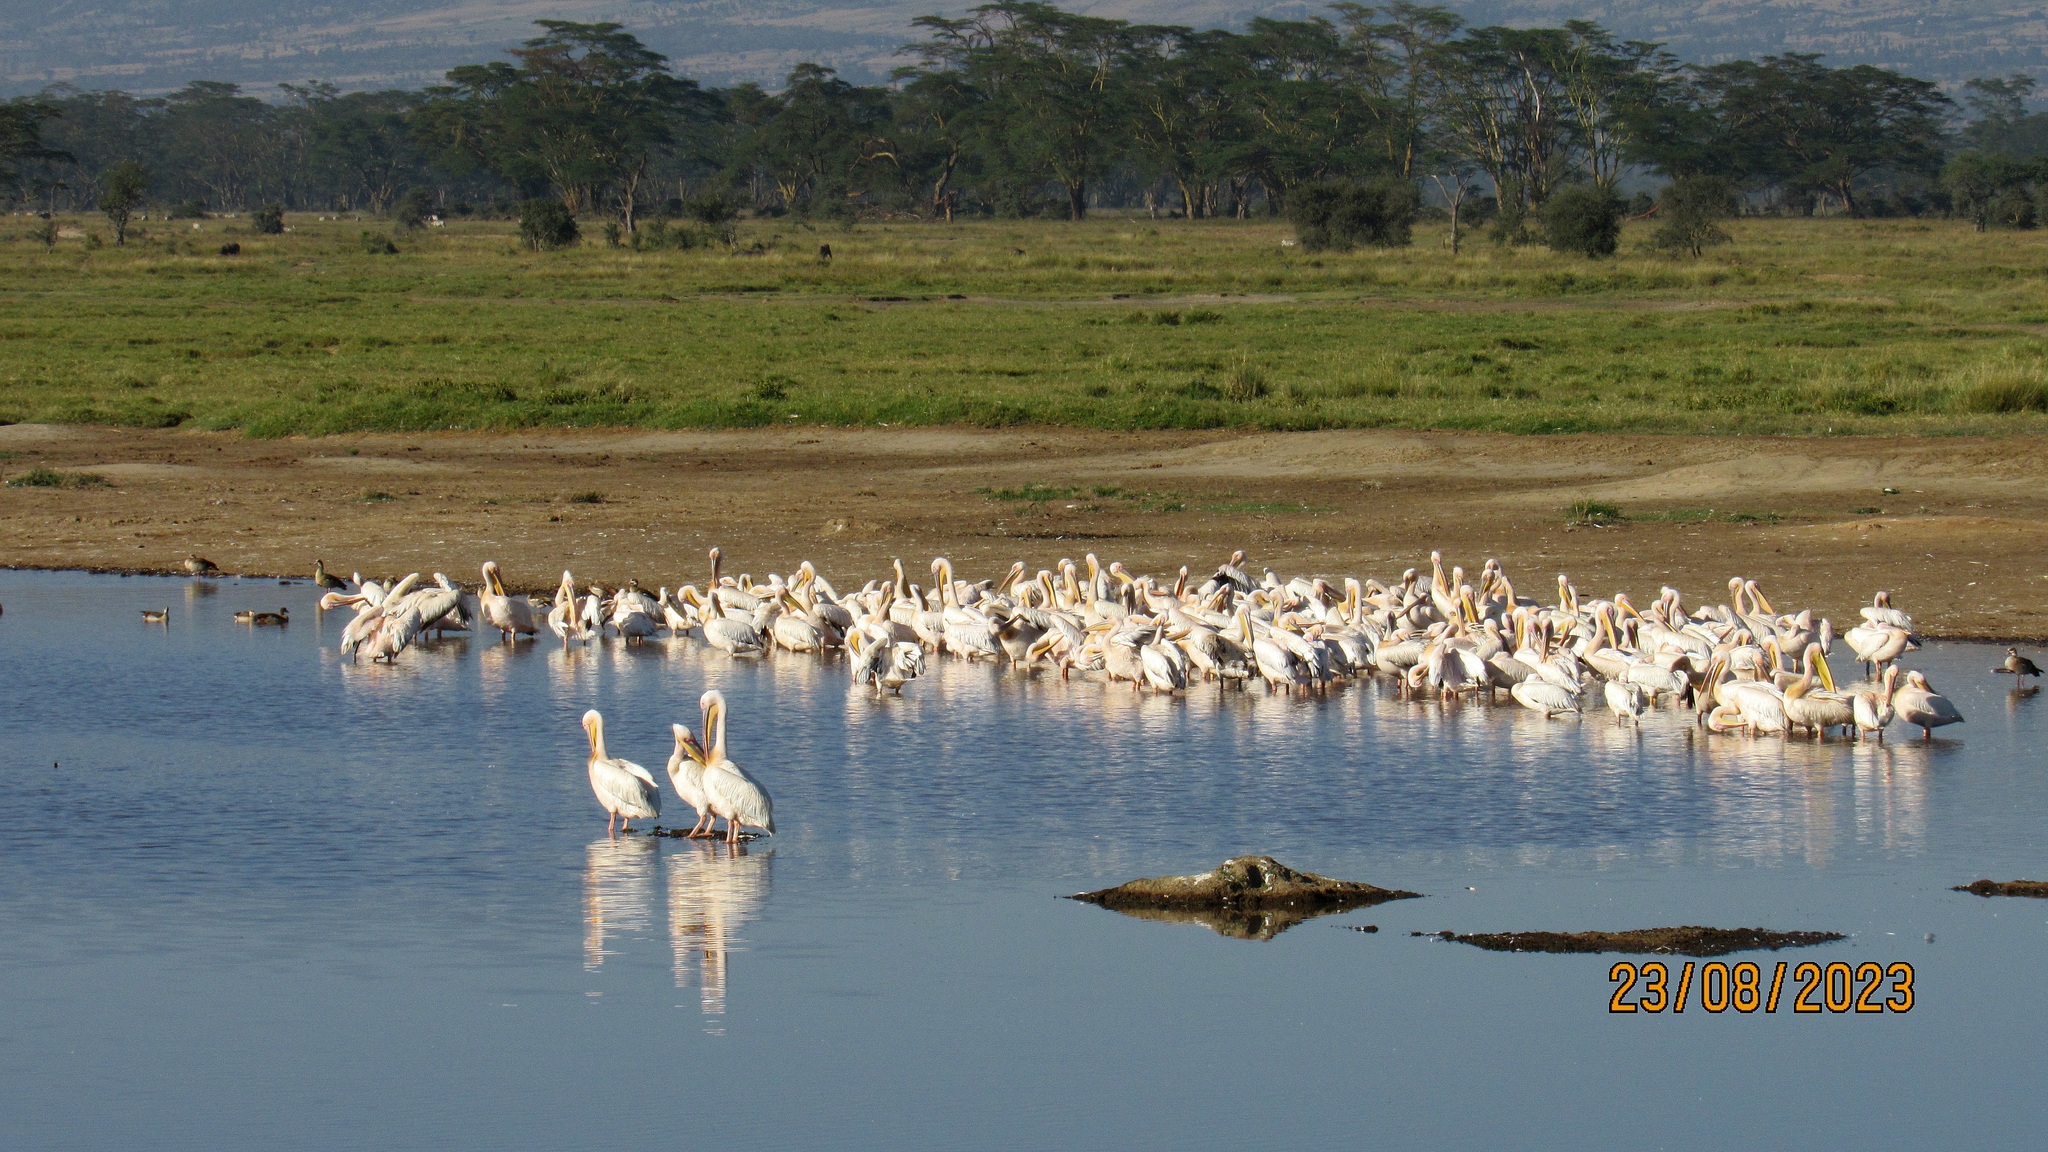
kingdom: Animalia
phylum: Chordata
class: Aves
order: Pelecaniformes
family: Pelecanidae
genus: Pelecanus
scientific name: Pelecanus onocrotalus
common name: Great white pelican
